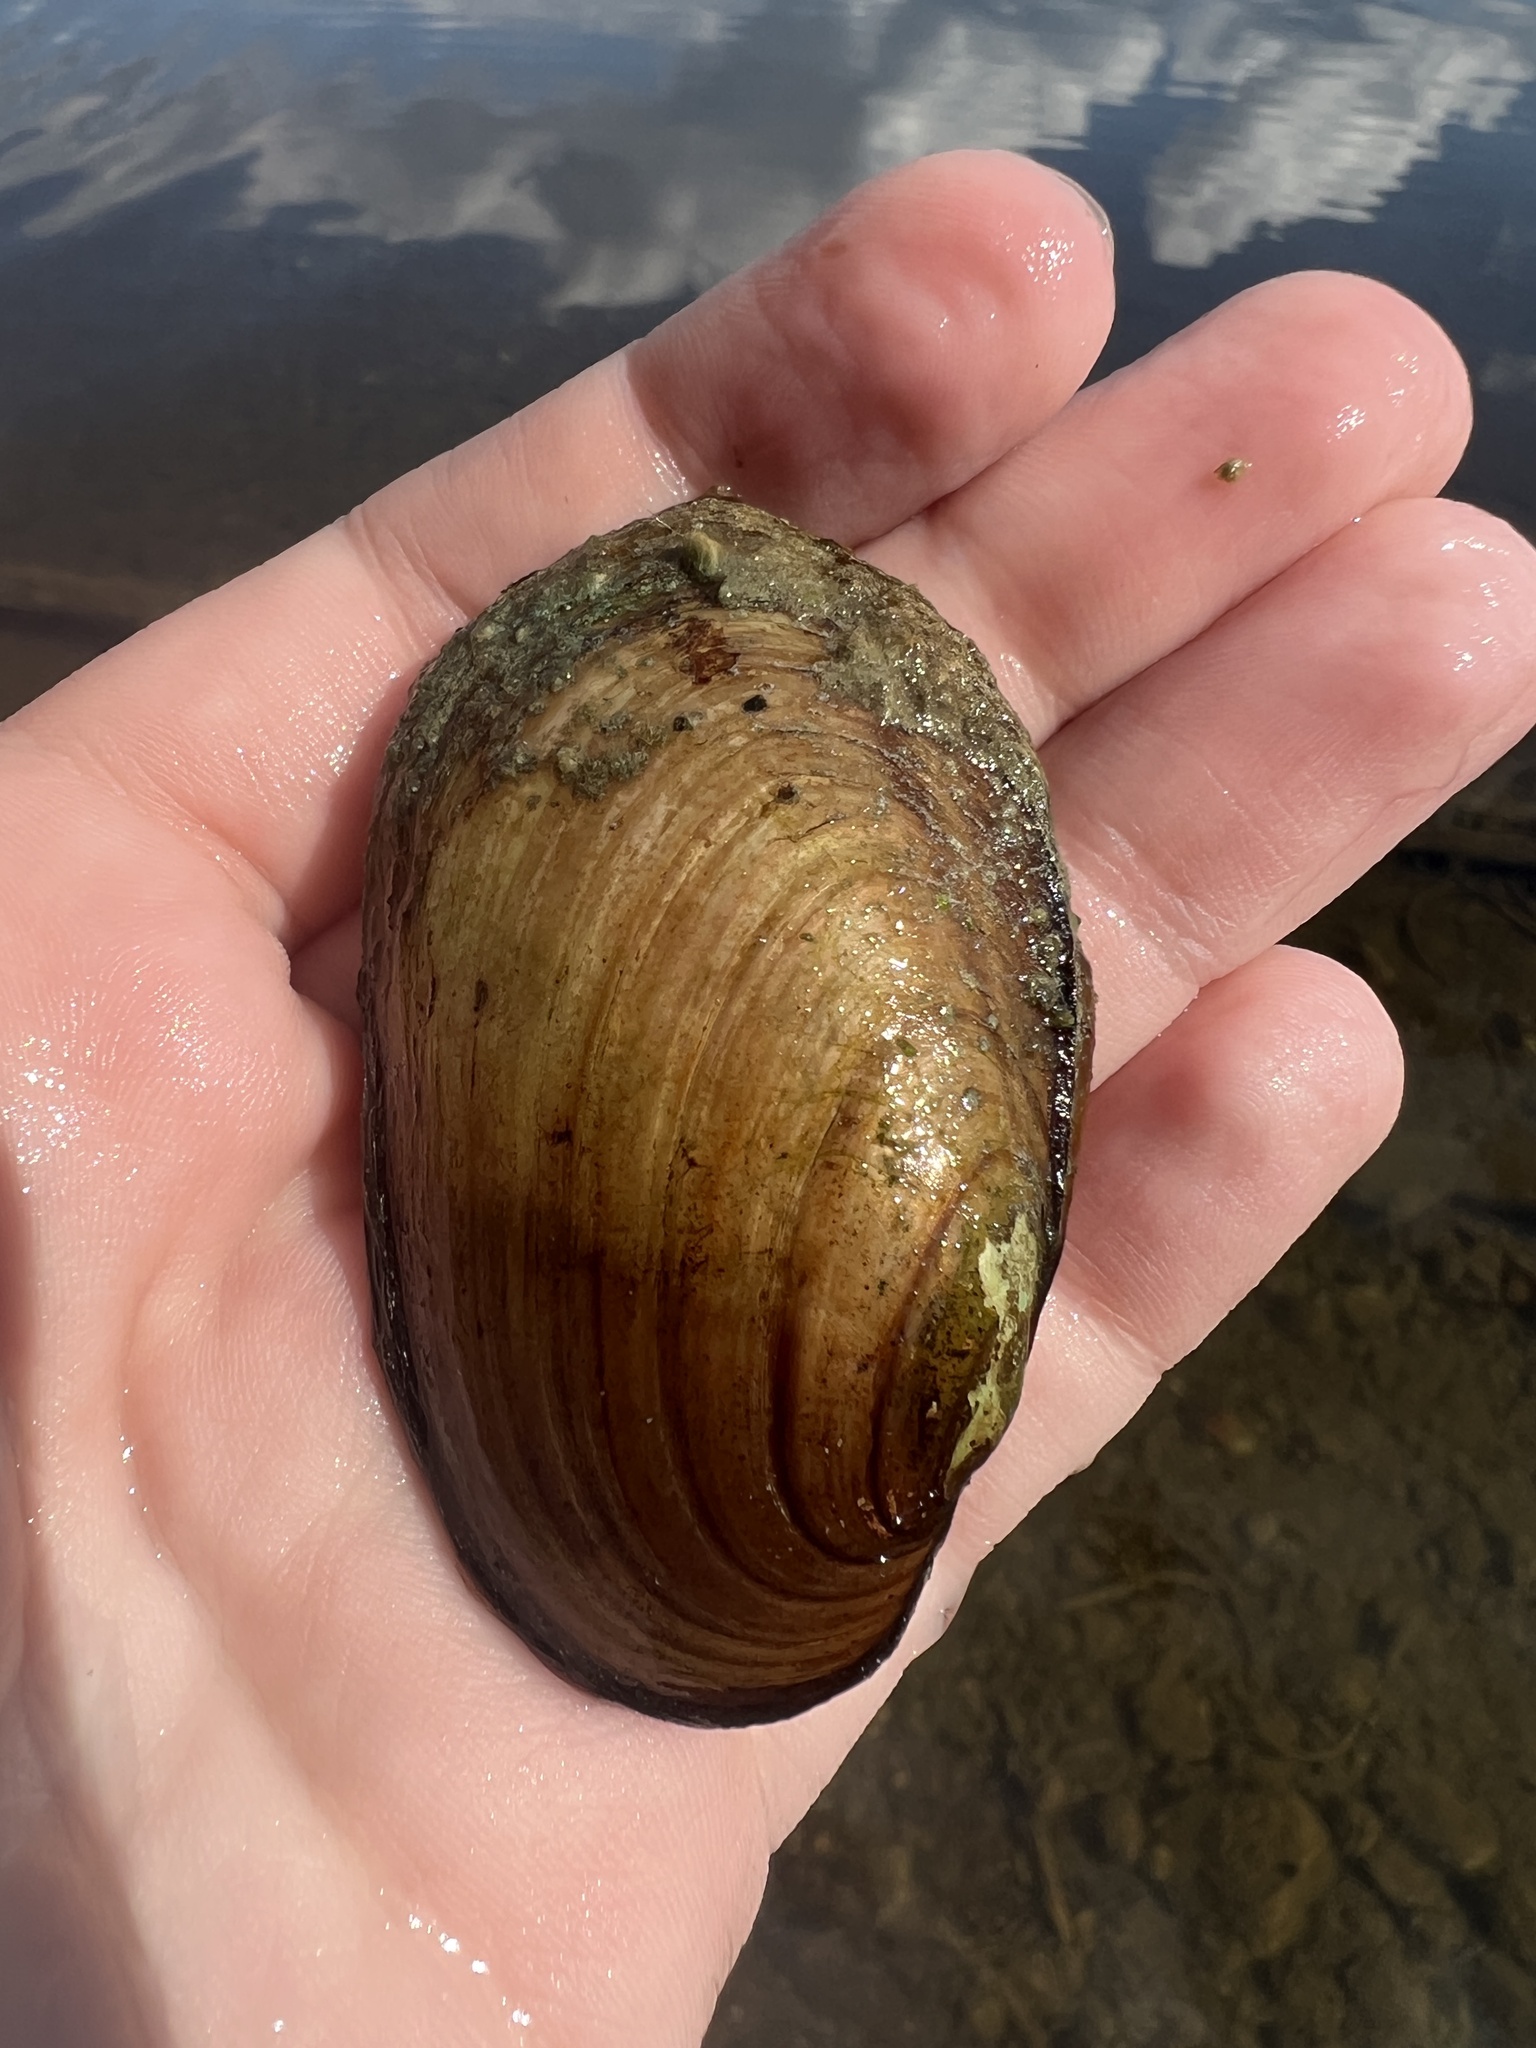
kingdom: Animalia
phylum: Mollusca
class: Bivalvia
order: Unionida
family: Unionidae
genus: Lampsilis
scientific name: Lampsilis siliquoidea
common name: Fatmucket
